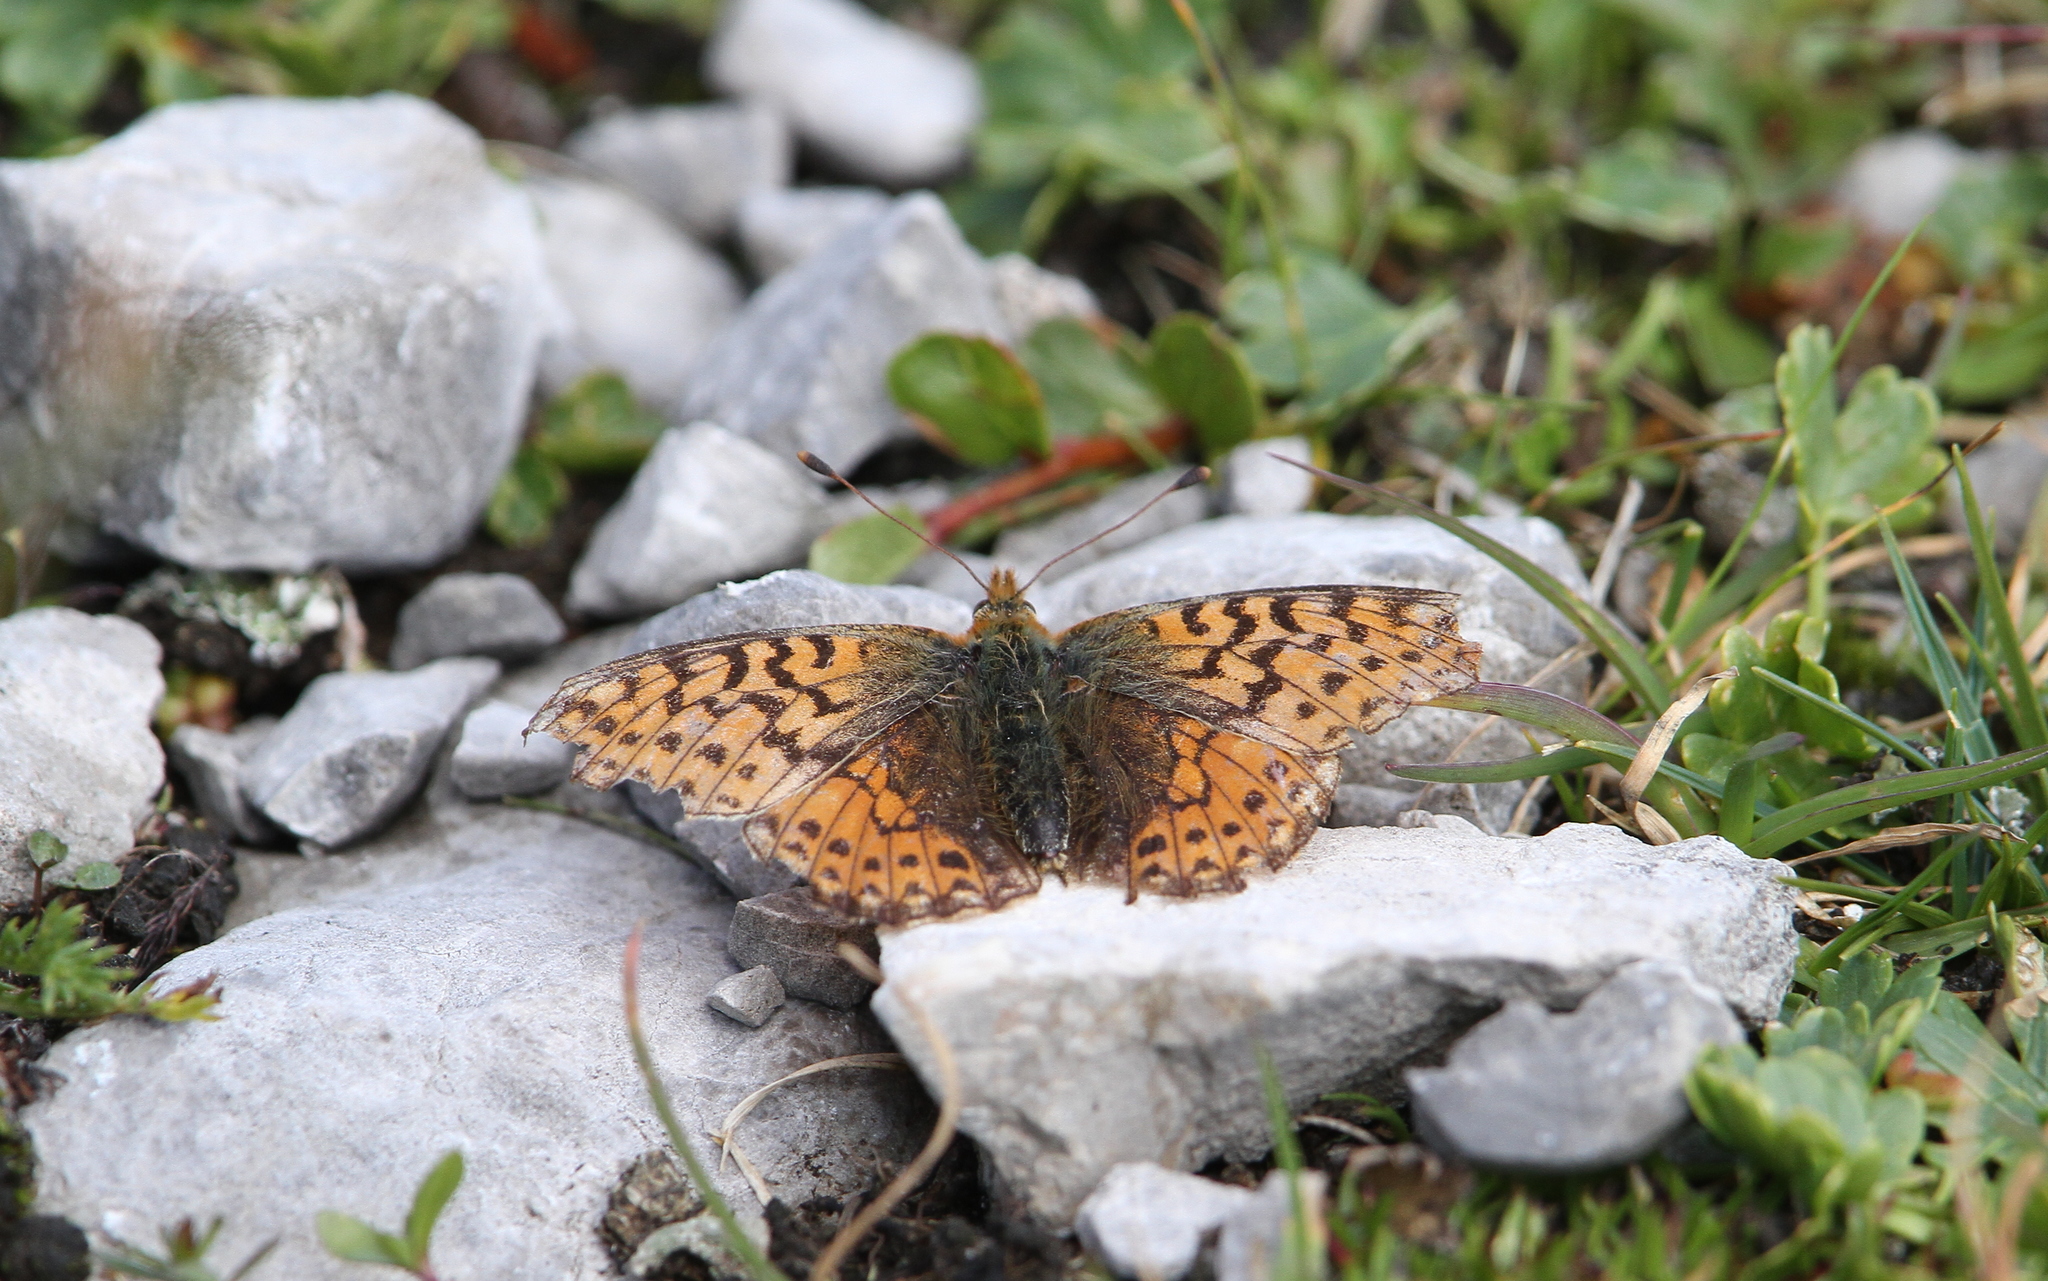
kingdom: Animalia
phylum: Arthropoda
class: Insecta
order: Lepidoptera
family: Nymphalidae
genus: Boloria
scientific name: Boloria pales
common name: Shepherd's fritillary
